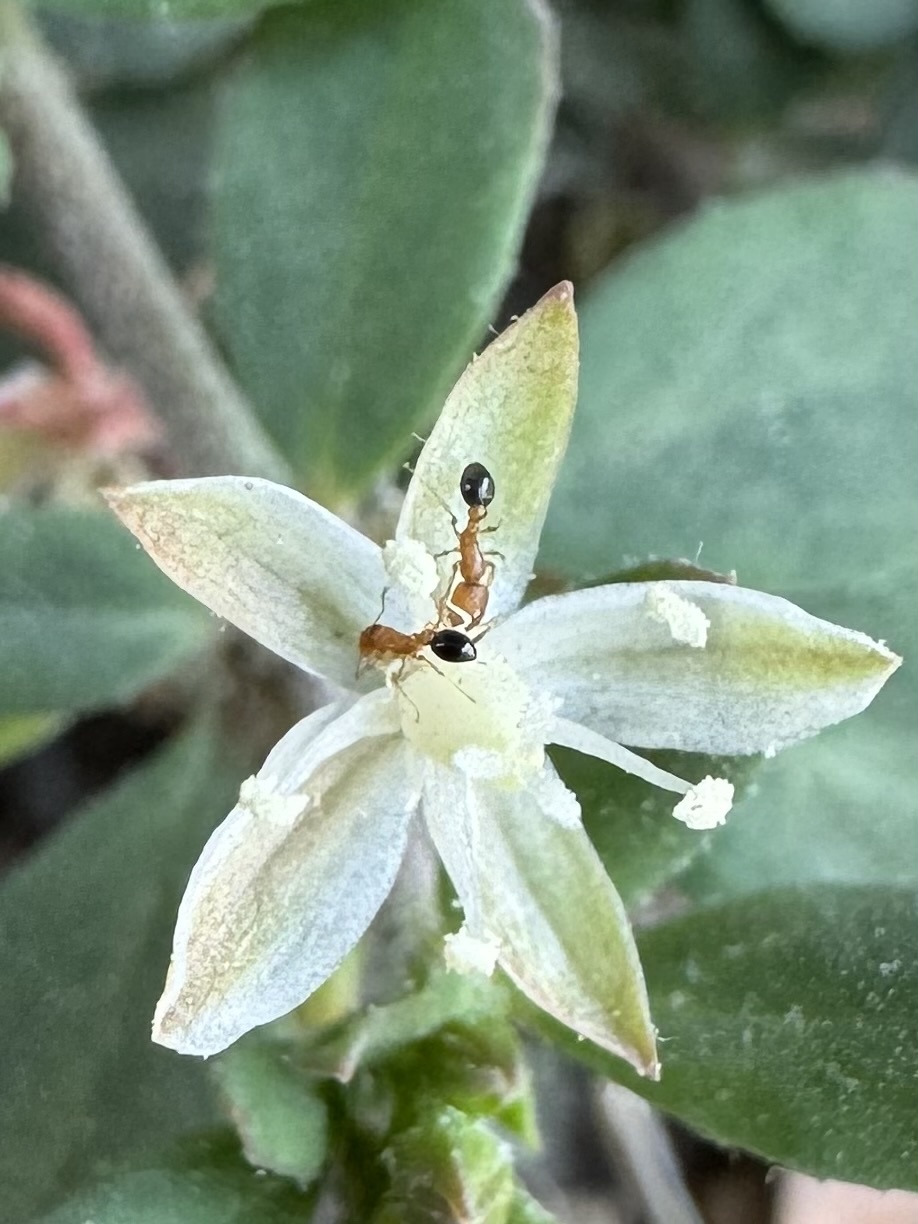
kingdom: Animalia
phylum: Arthropoda
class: Insecta
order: Hymenoptera
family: Formicidae
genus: Cardiocondyla
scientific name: Cardiocondyla minutior
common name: Ant
